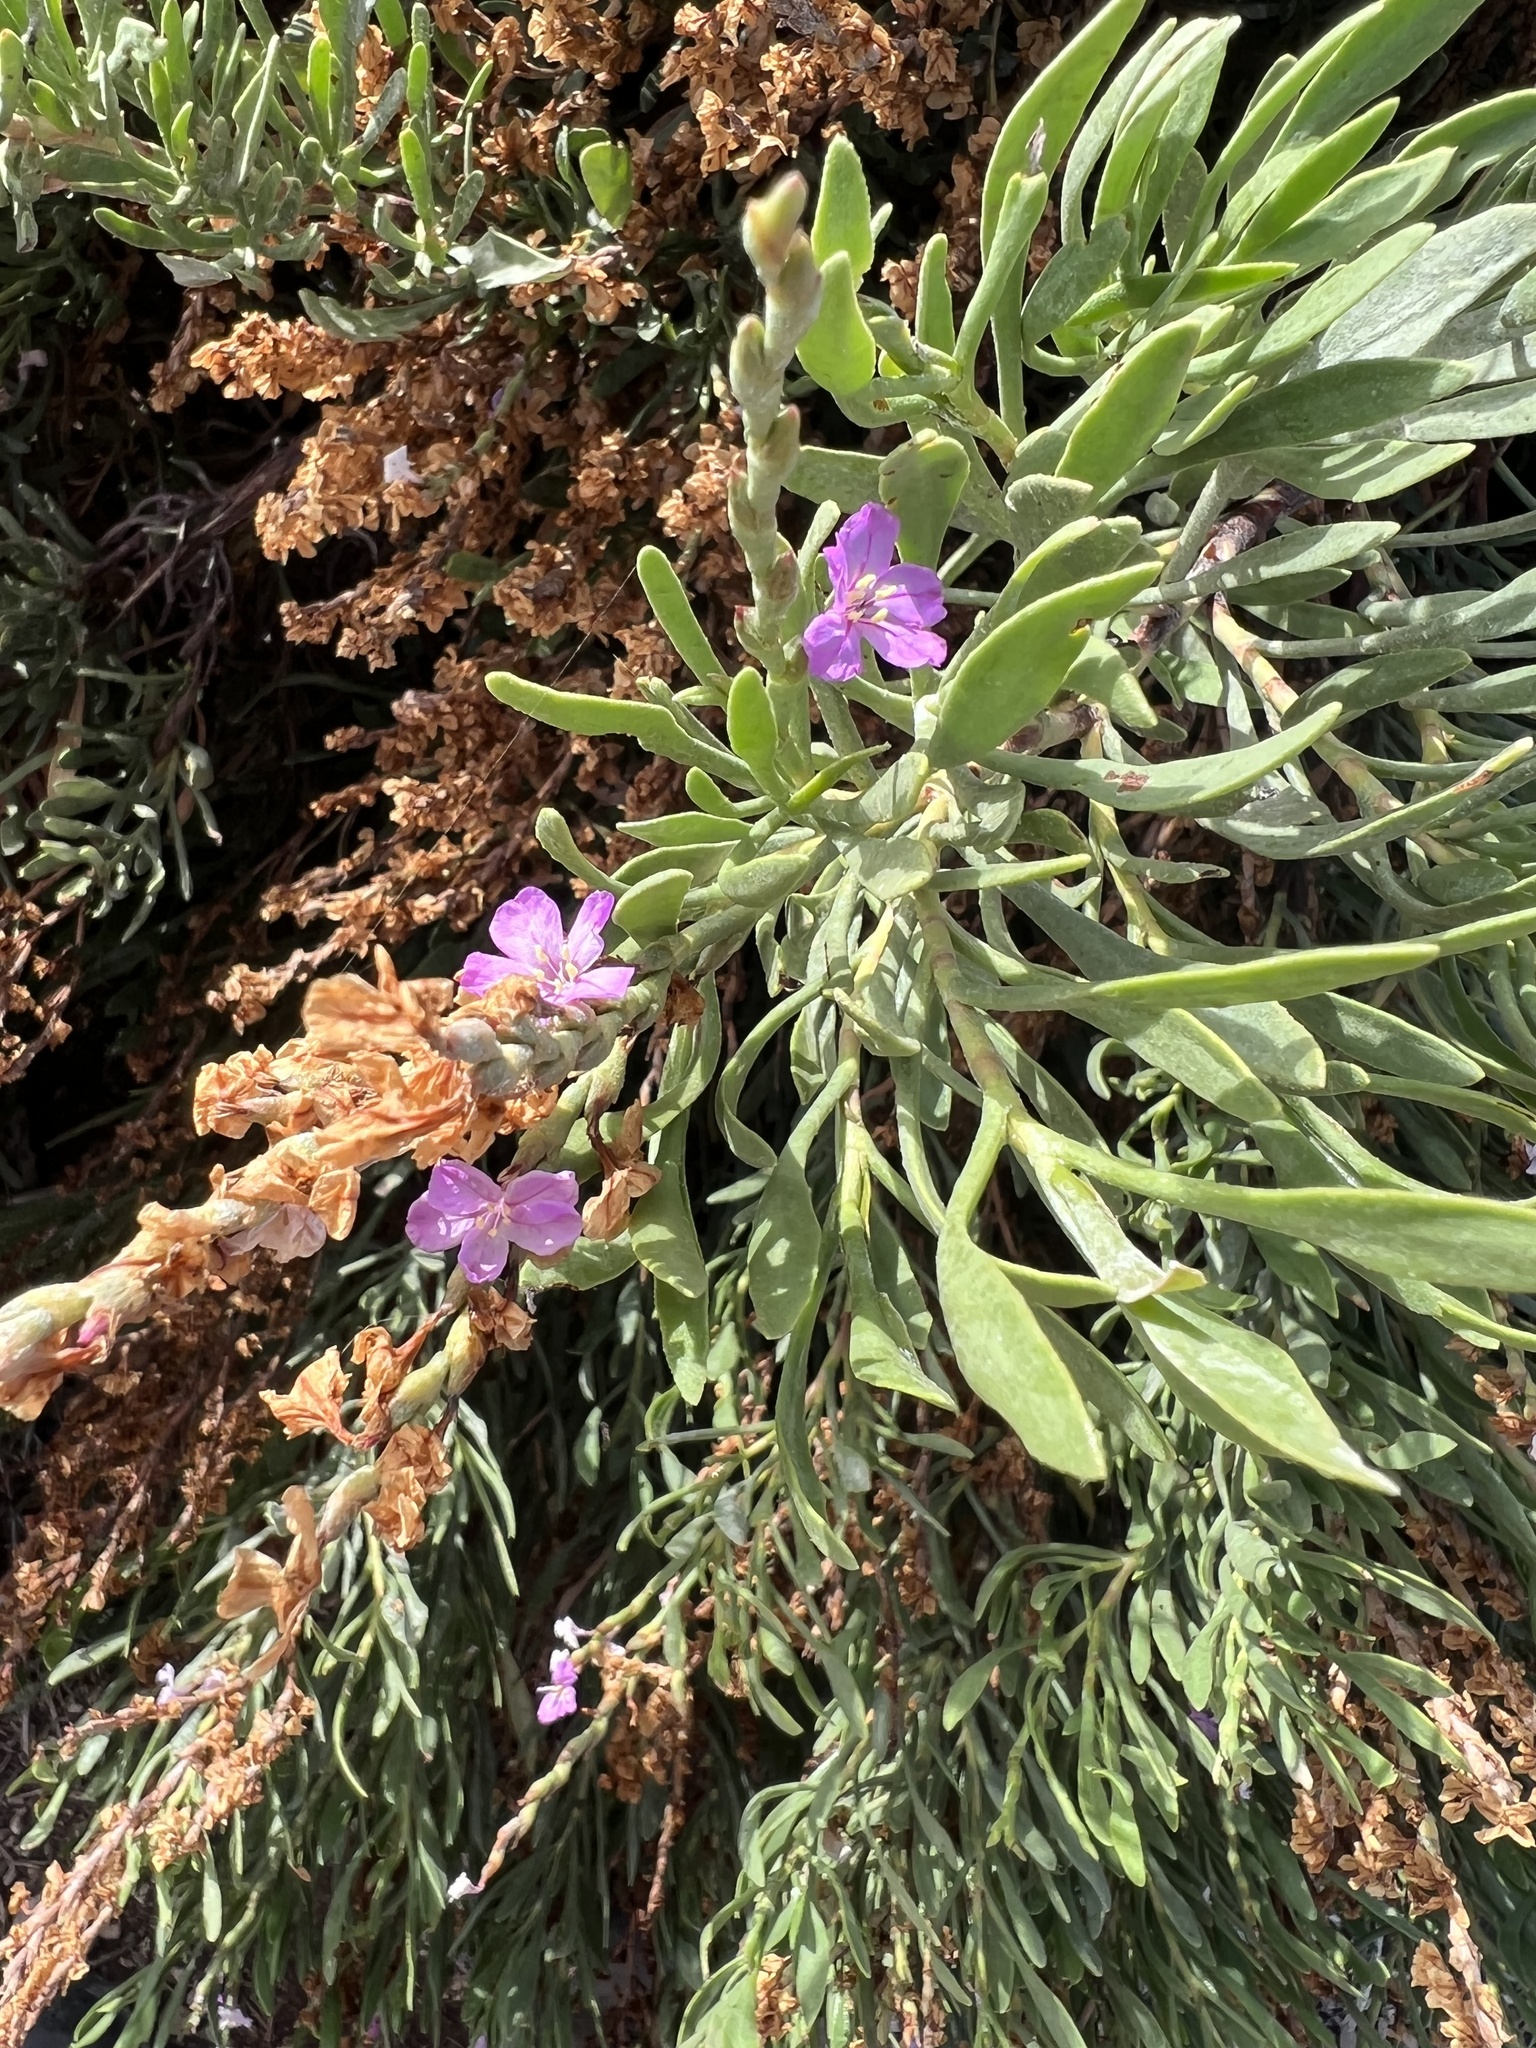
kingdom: Plantae
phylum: Tracheophyta
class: Magnoliopsida
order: Caryophyllales
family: Plumbaginaceae
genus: Limoniastrum
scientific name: Limoniastrum monopetalum
